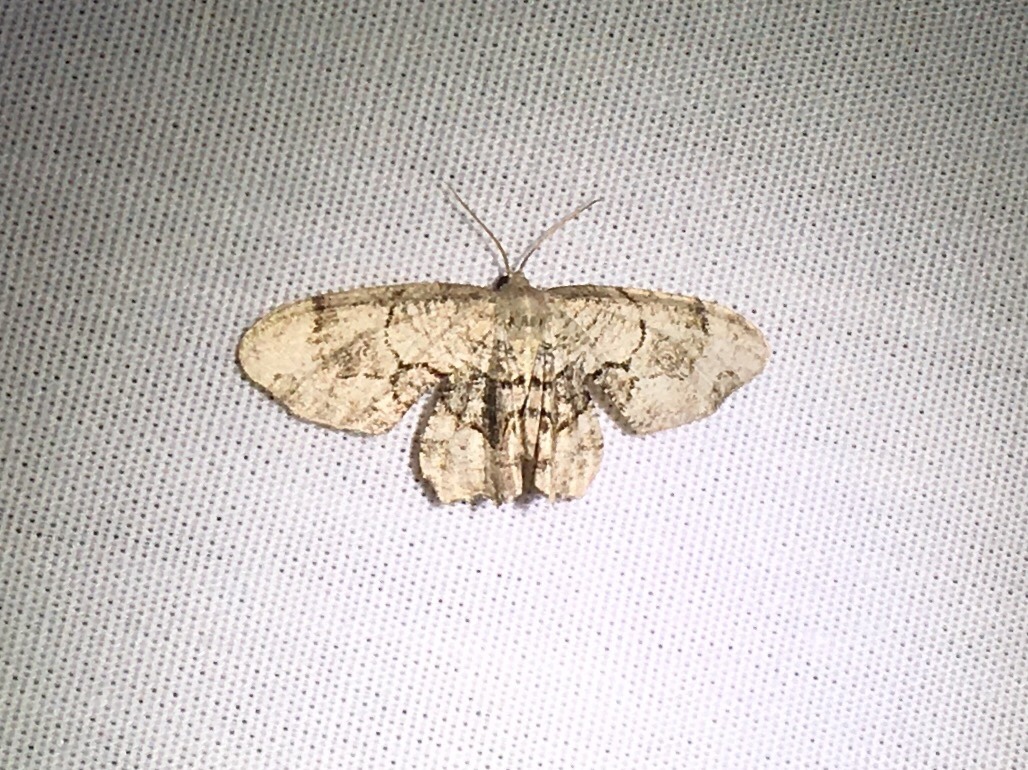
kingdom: Animalia
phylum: Arthropoda
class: Insecta
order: Lepidoptera
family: Uraniidae
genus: Epiplema
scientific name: Epiplema Callizzia amorata
